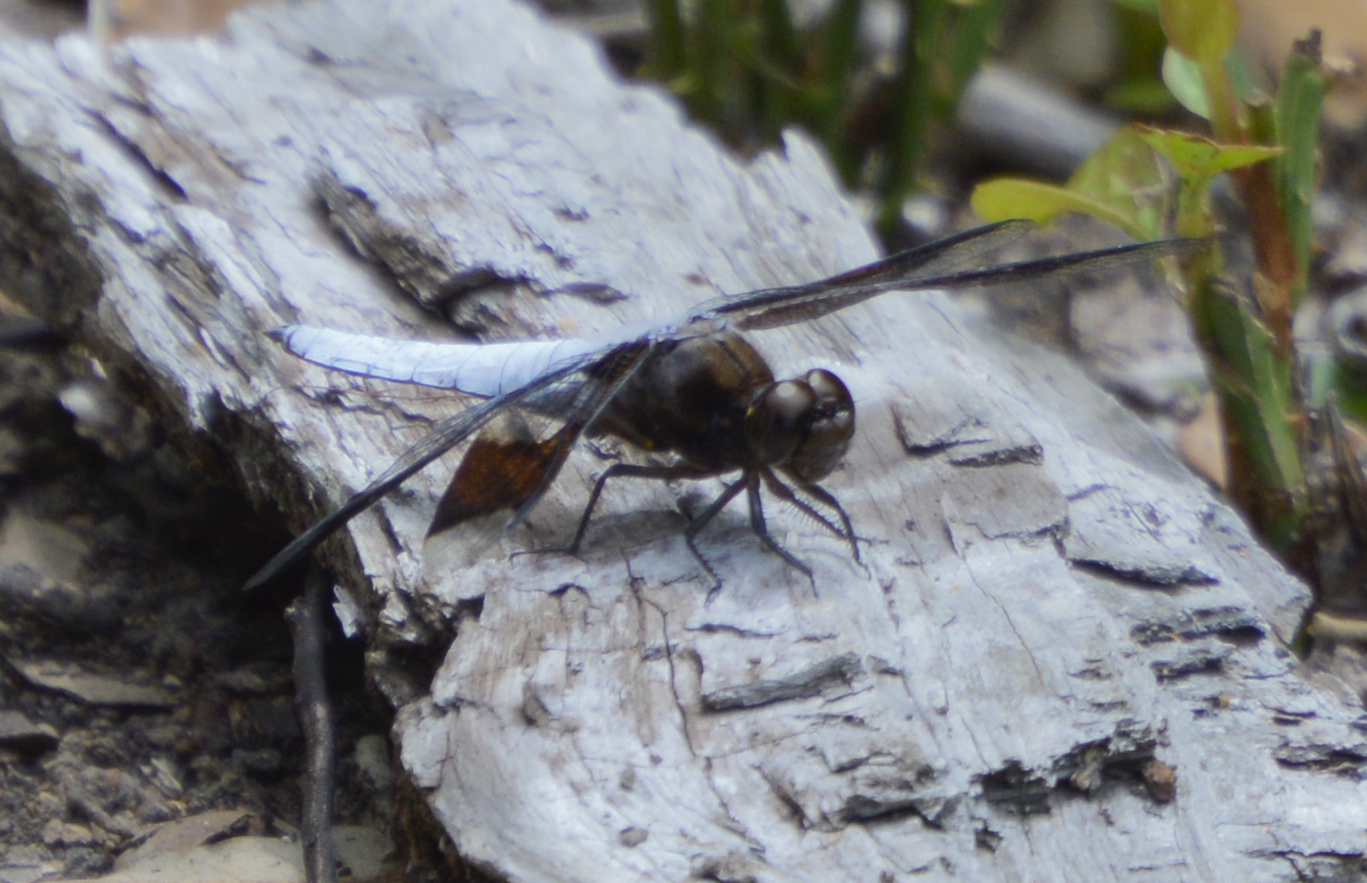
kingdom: Animalia
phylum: Arthropoda
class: Insecta
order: Odonata
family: Libellulidae
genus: Plathemis
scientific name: Plathemis lydia
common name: Common whitetail
